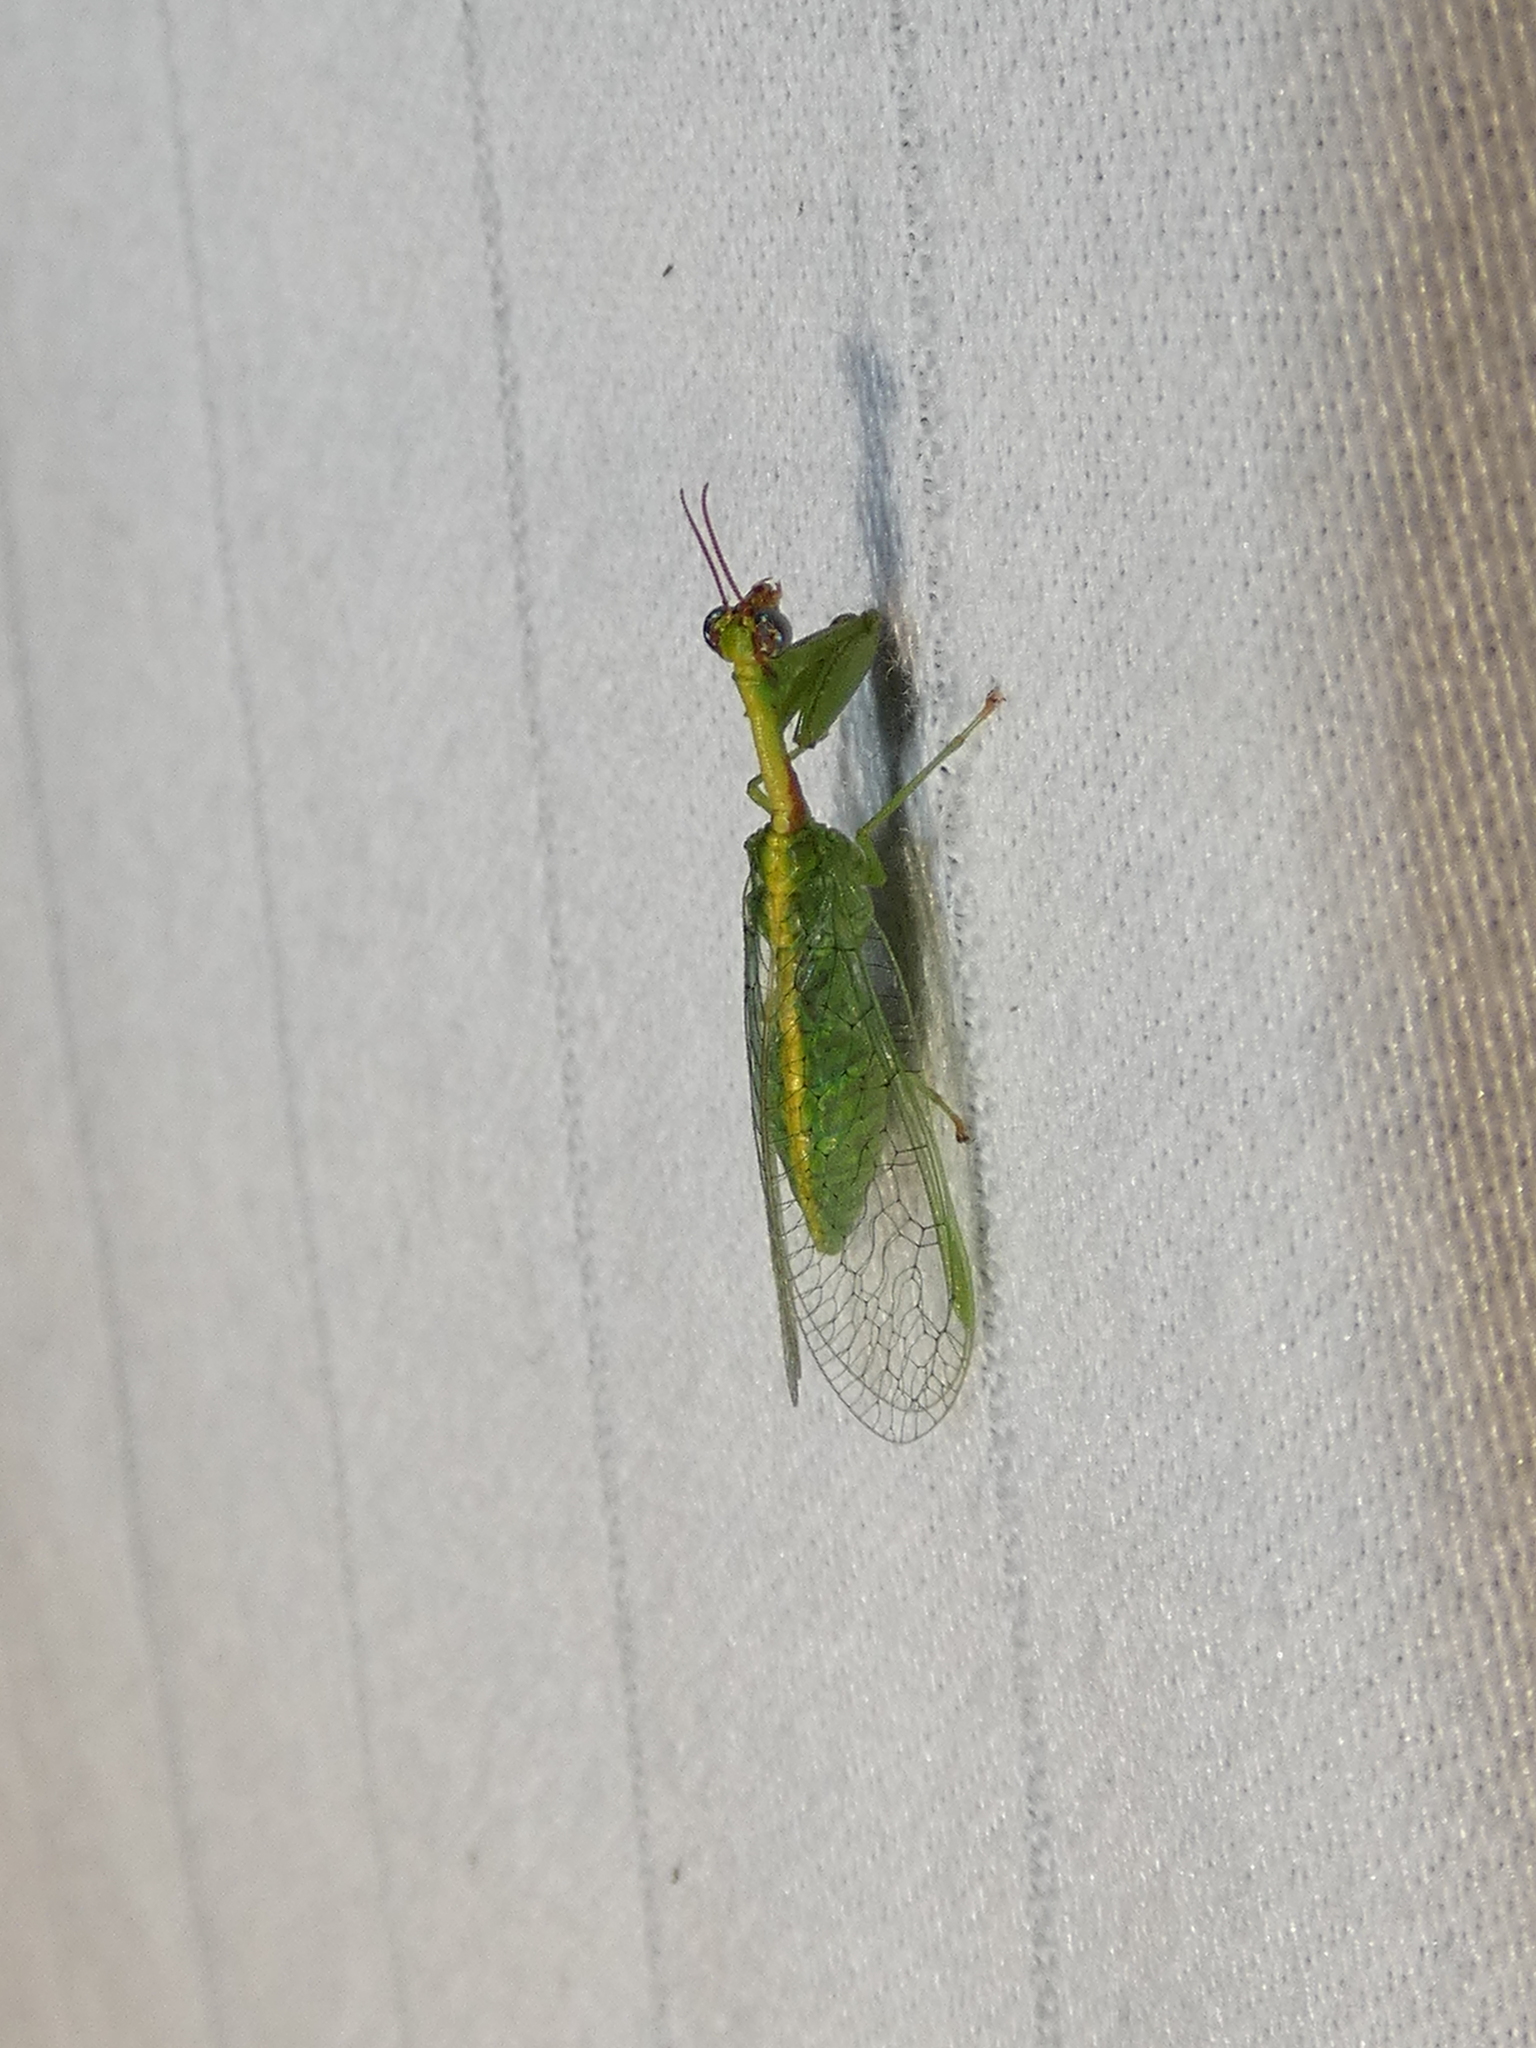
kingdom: Animalia
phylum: Arthropoda
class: Insecta
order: Neuroptera
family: Mantispidae
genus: Zeugomantispa
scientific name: Zeugomantispa minuta
